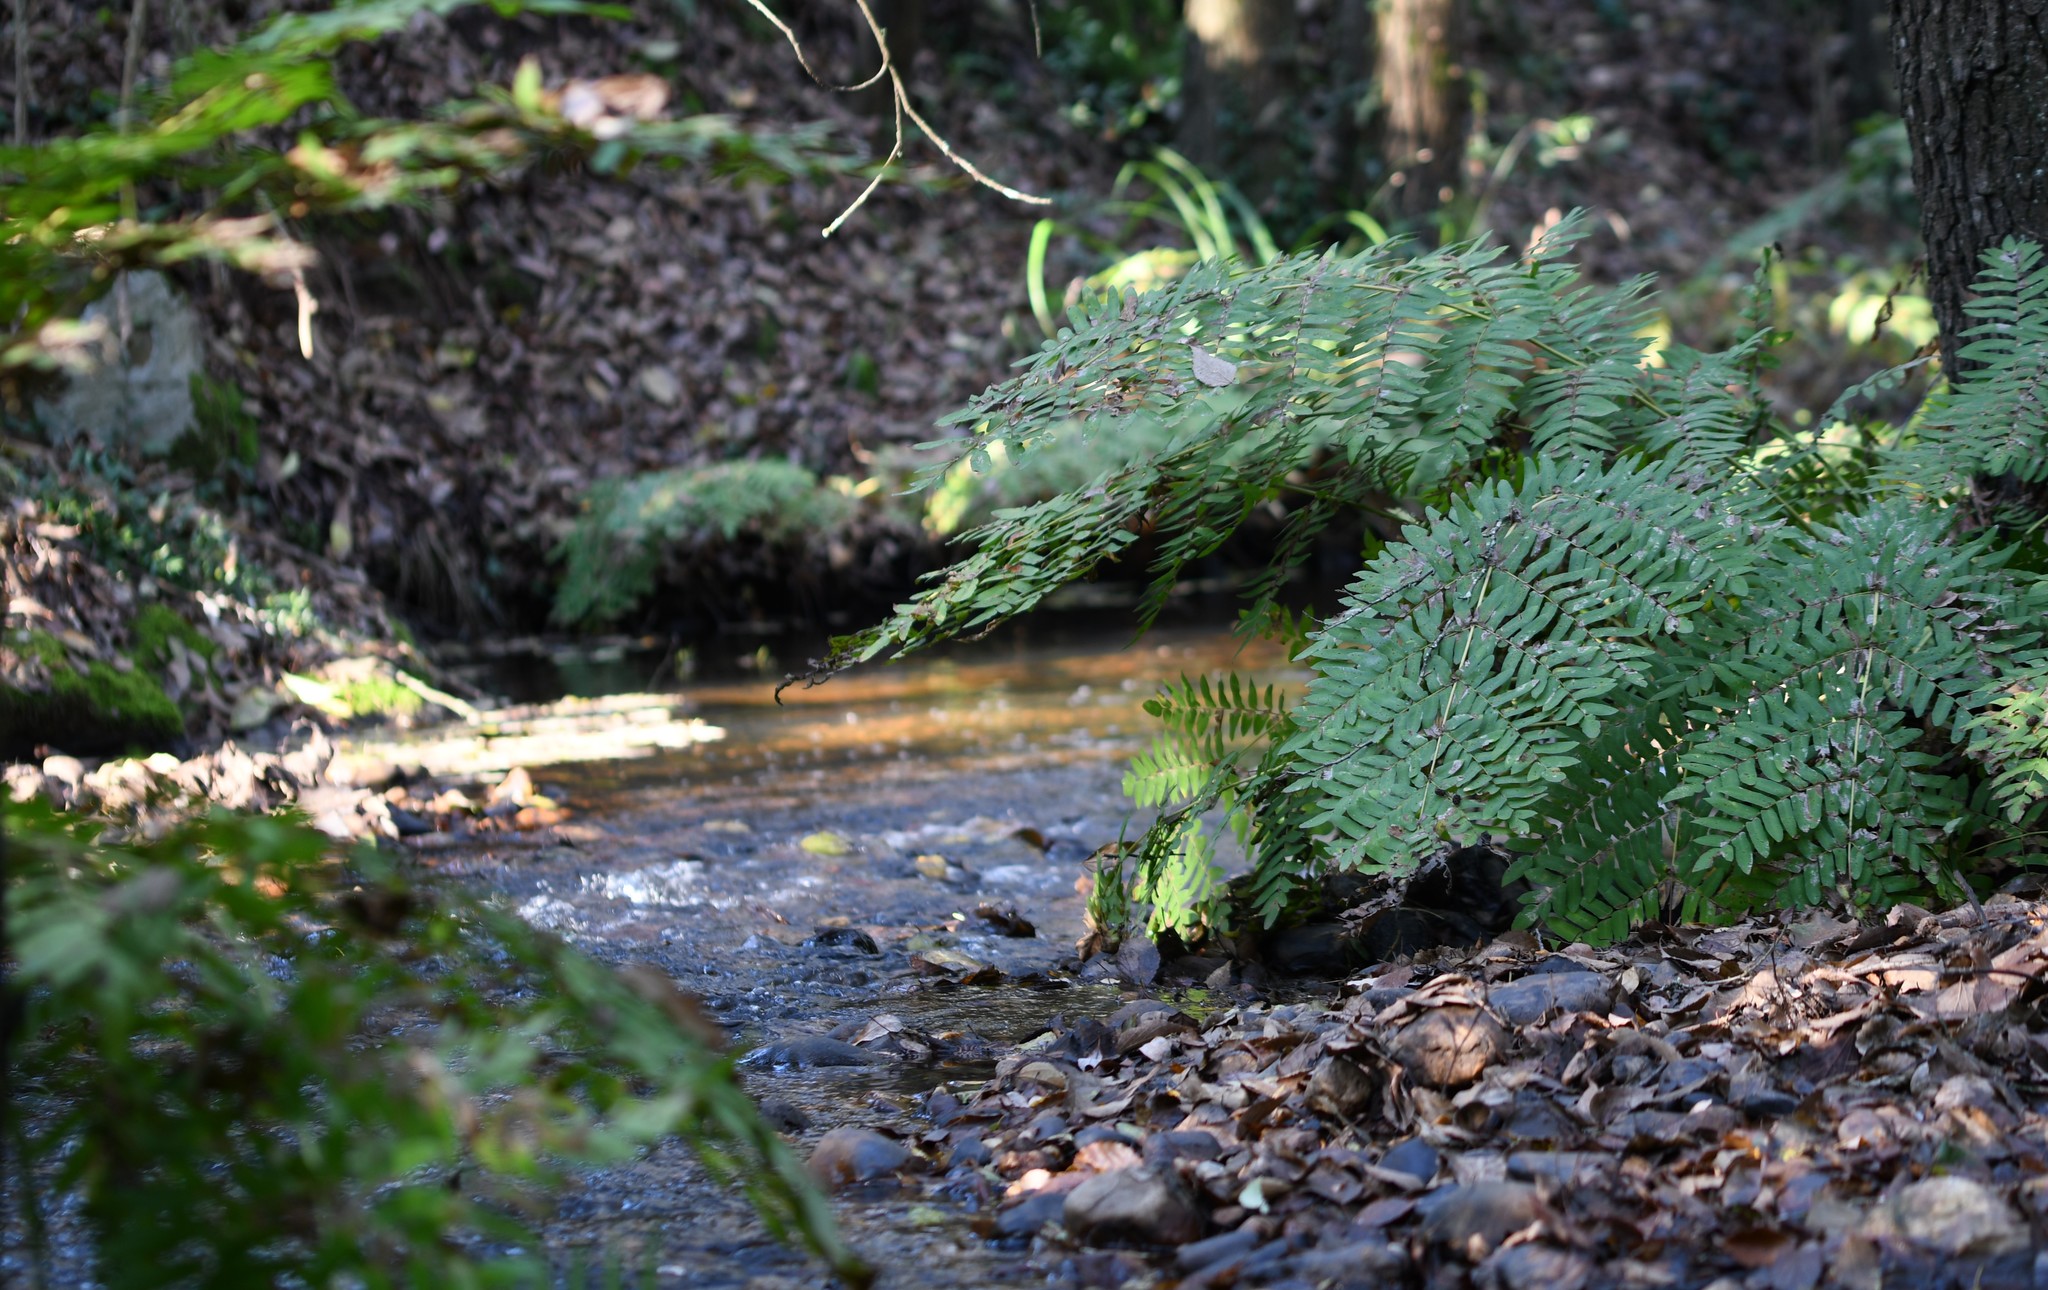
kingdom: Plantae
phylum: Tracheophyta
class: Polypodiopsida
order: Osmundales
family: Osmundaceae
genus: Osmunda
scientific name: Osmunda regalis
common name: Royal fern
